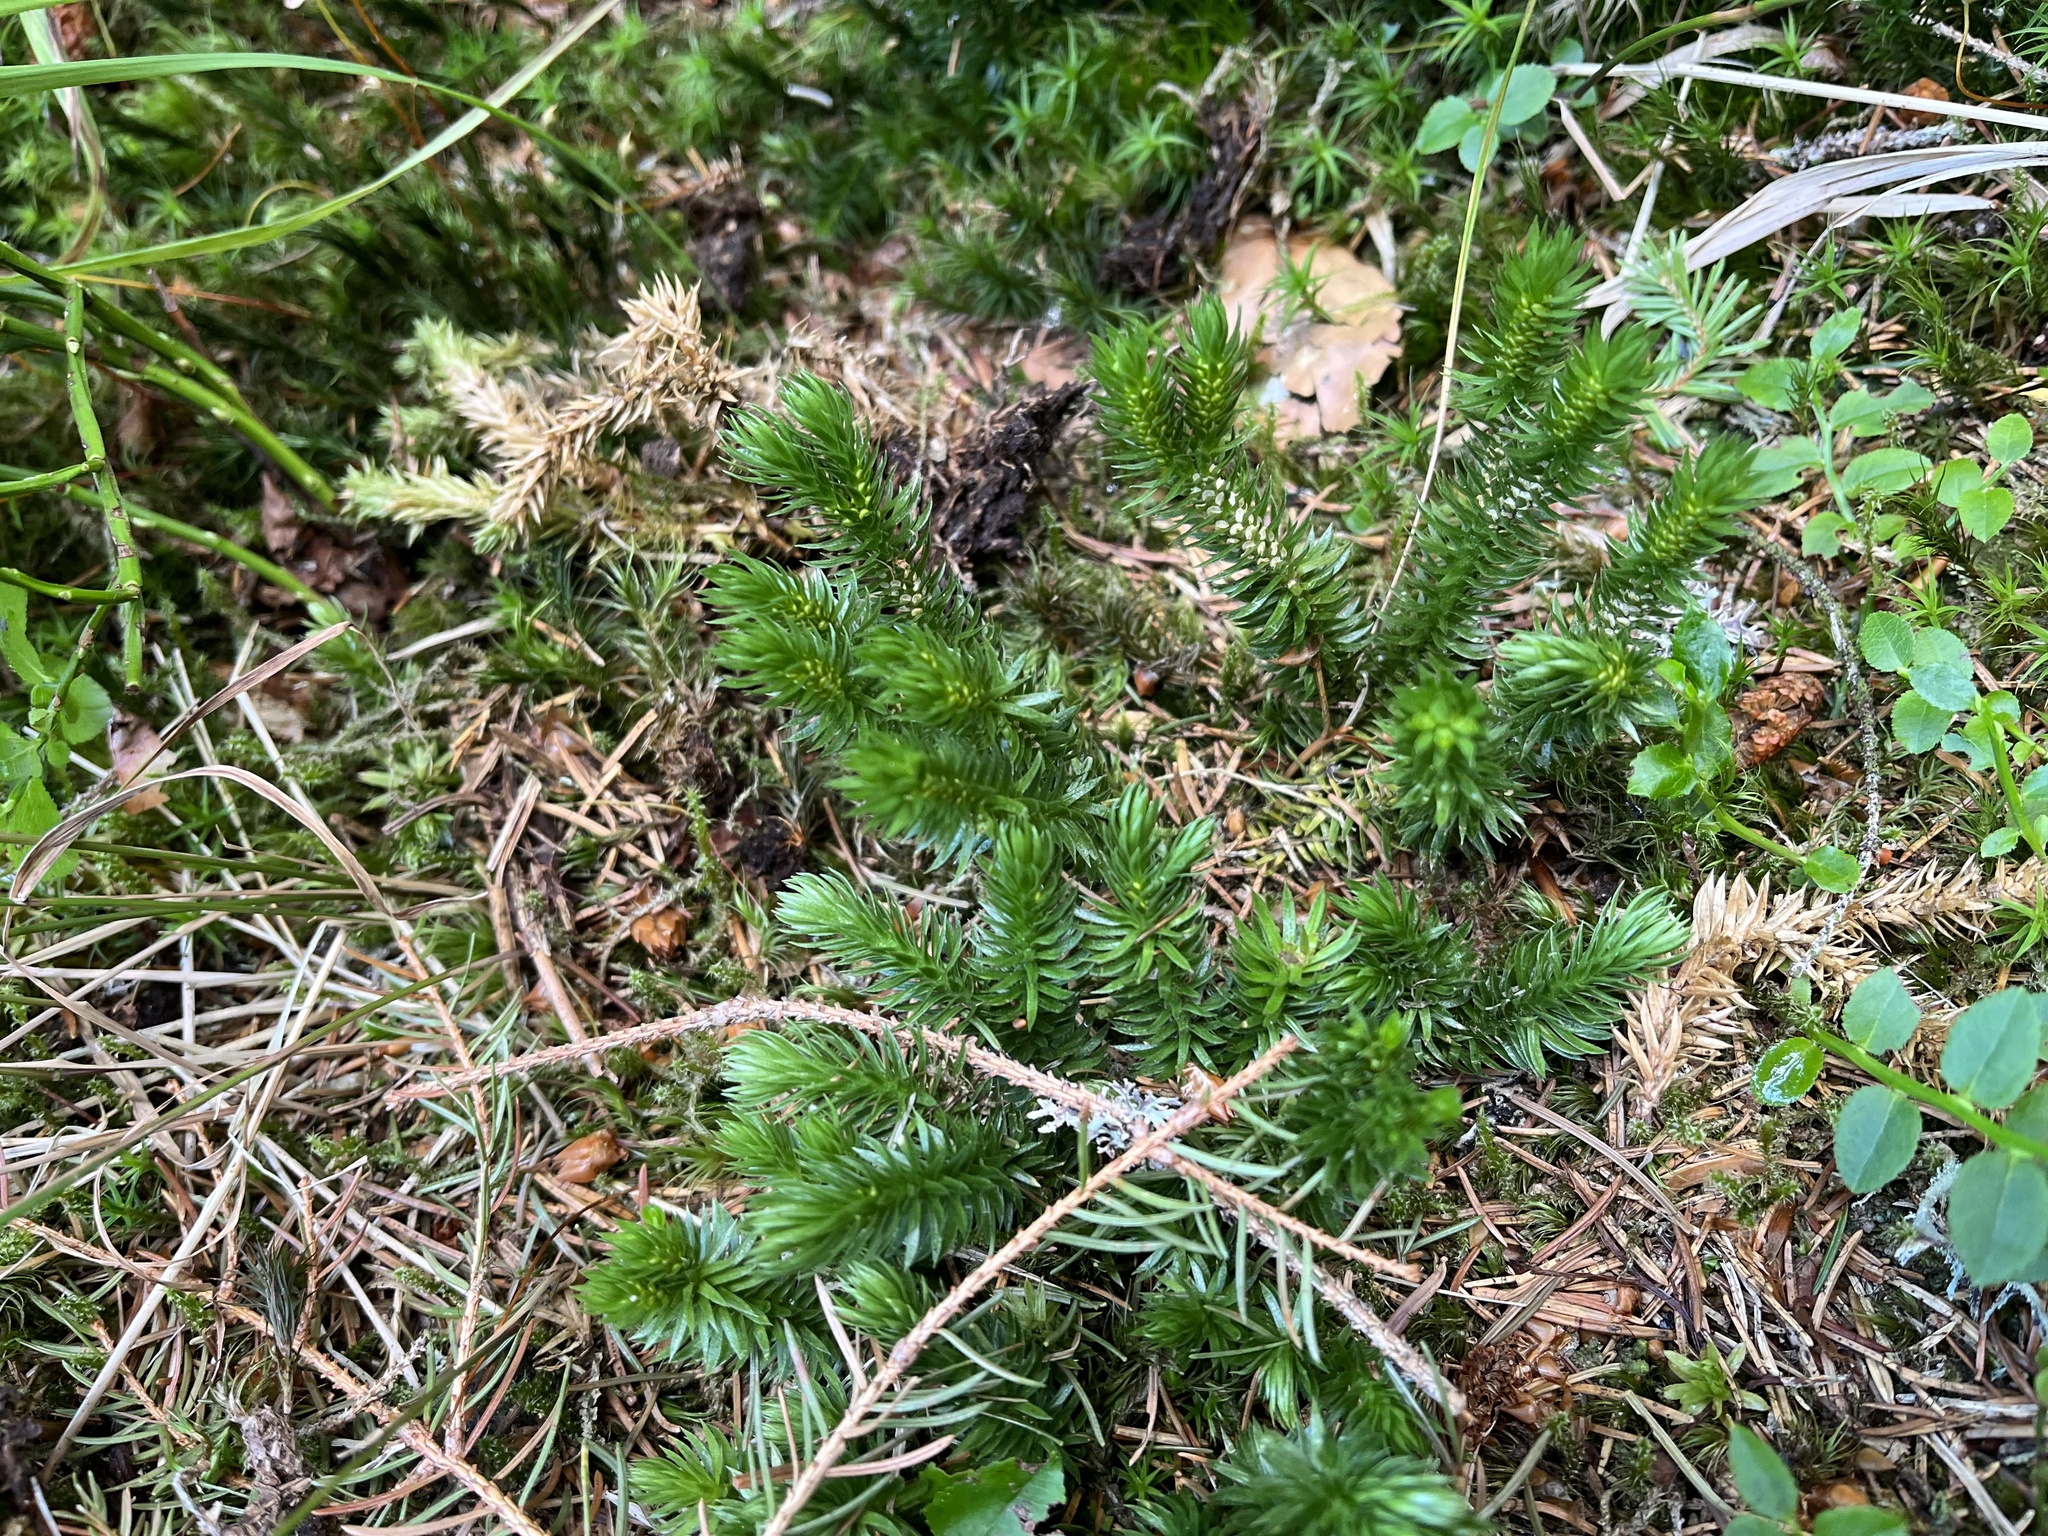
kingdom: Plantae
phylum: Tracheophyta
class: Lycopodiopsida
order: Lycopodiales
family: Lycopodiaceae
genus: Huperzia
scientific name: Huperzia selago
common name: Northern firmoss
